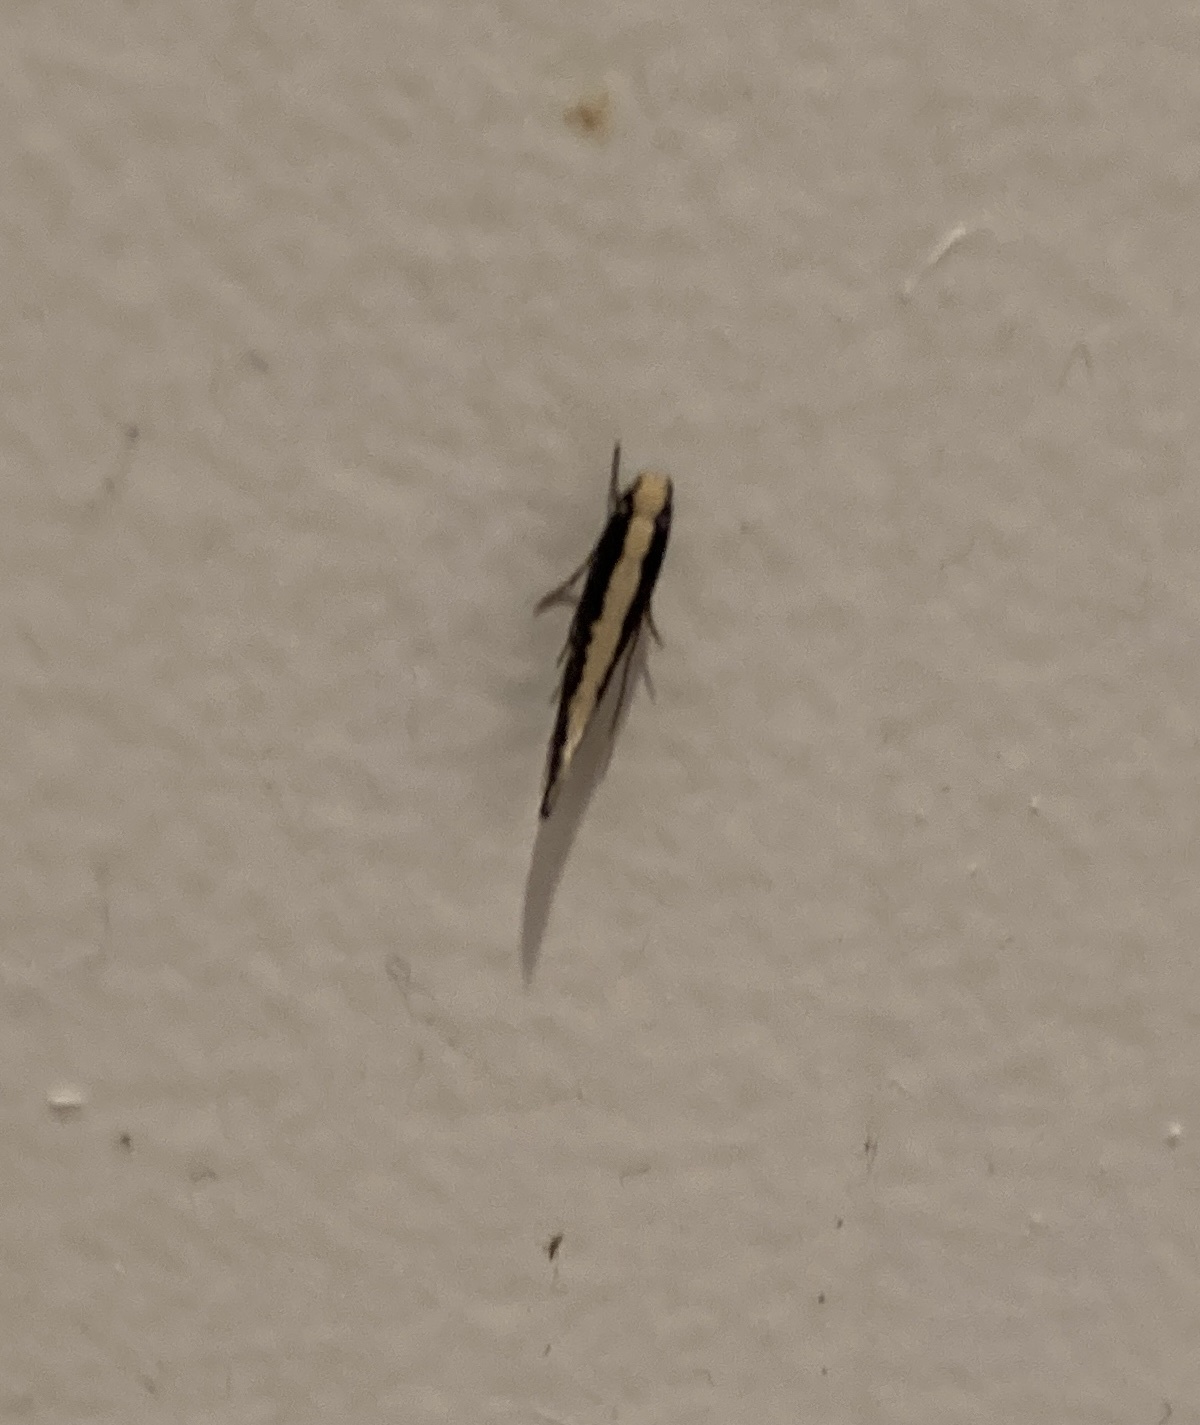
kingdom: Animalia
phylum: Arthropoda
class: Insecta
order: Lepidoptera
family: Tineidae
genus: Monopis
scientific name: Monopis ethelella
